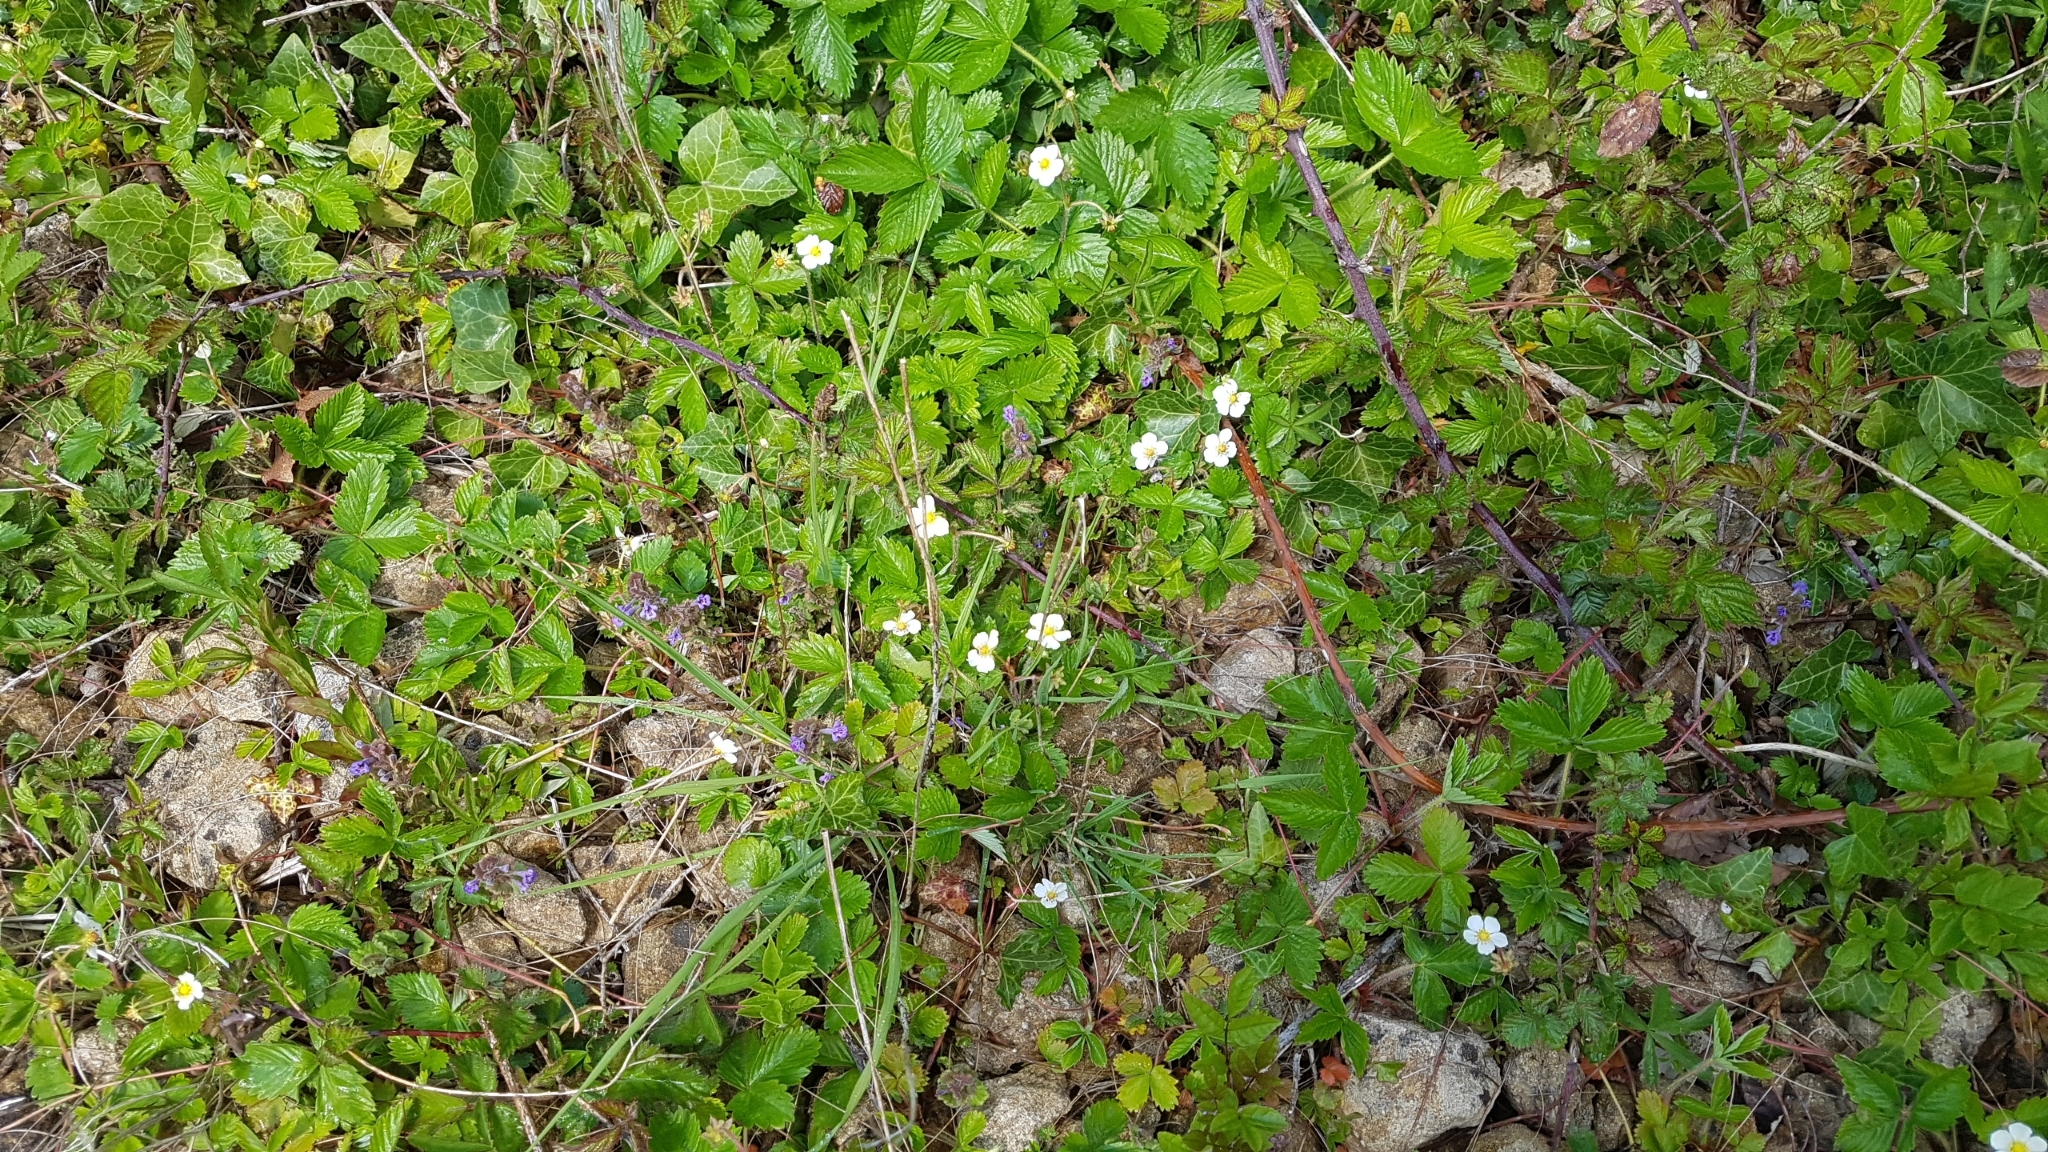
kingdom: Plantae
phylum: Tracheophyta
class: Magnoliopsida
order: Rosales
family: Rosaceae
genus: Fragaria
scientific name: Fragaria vesca
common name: Wild strawberry
